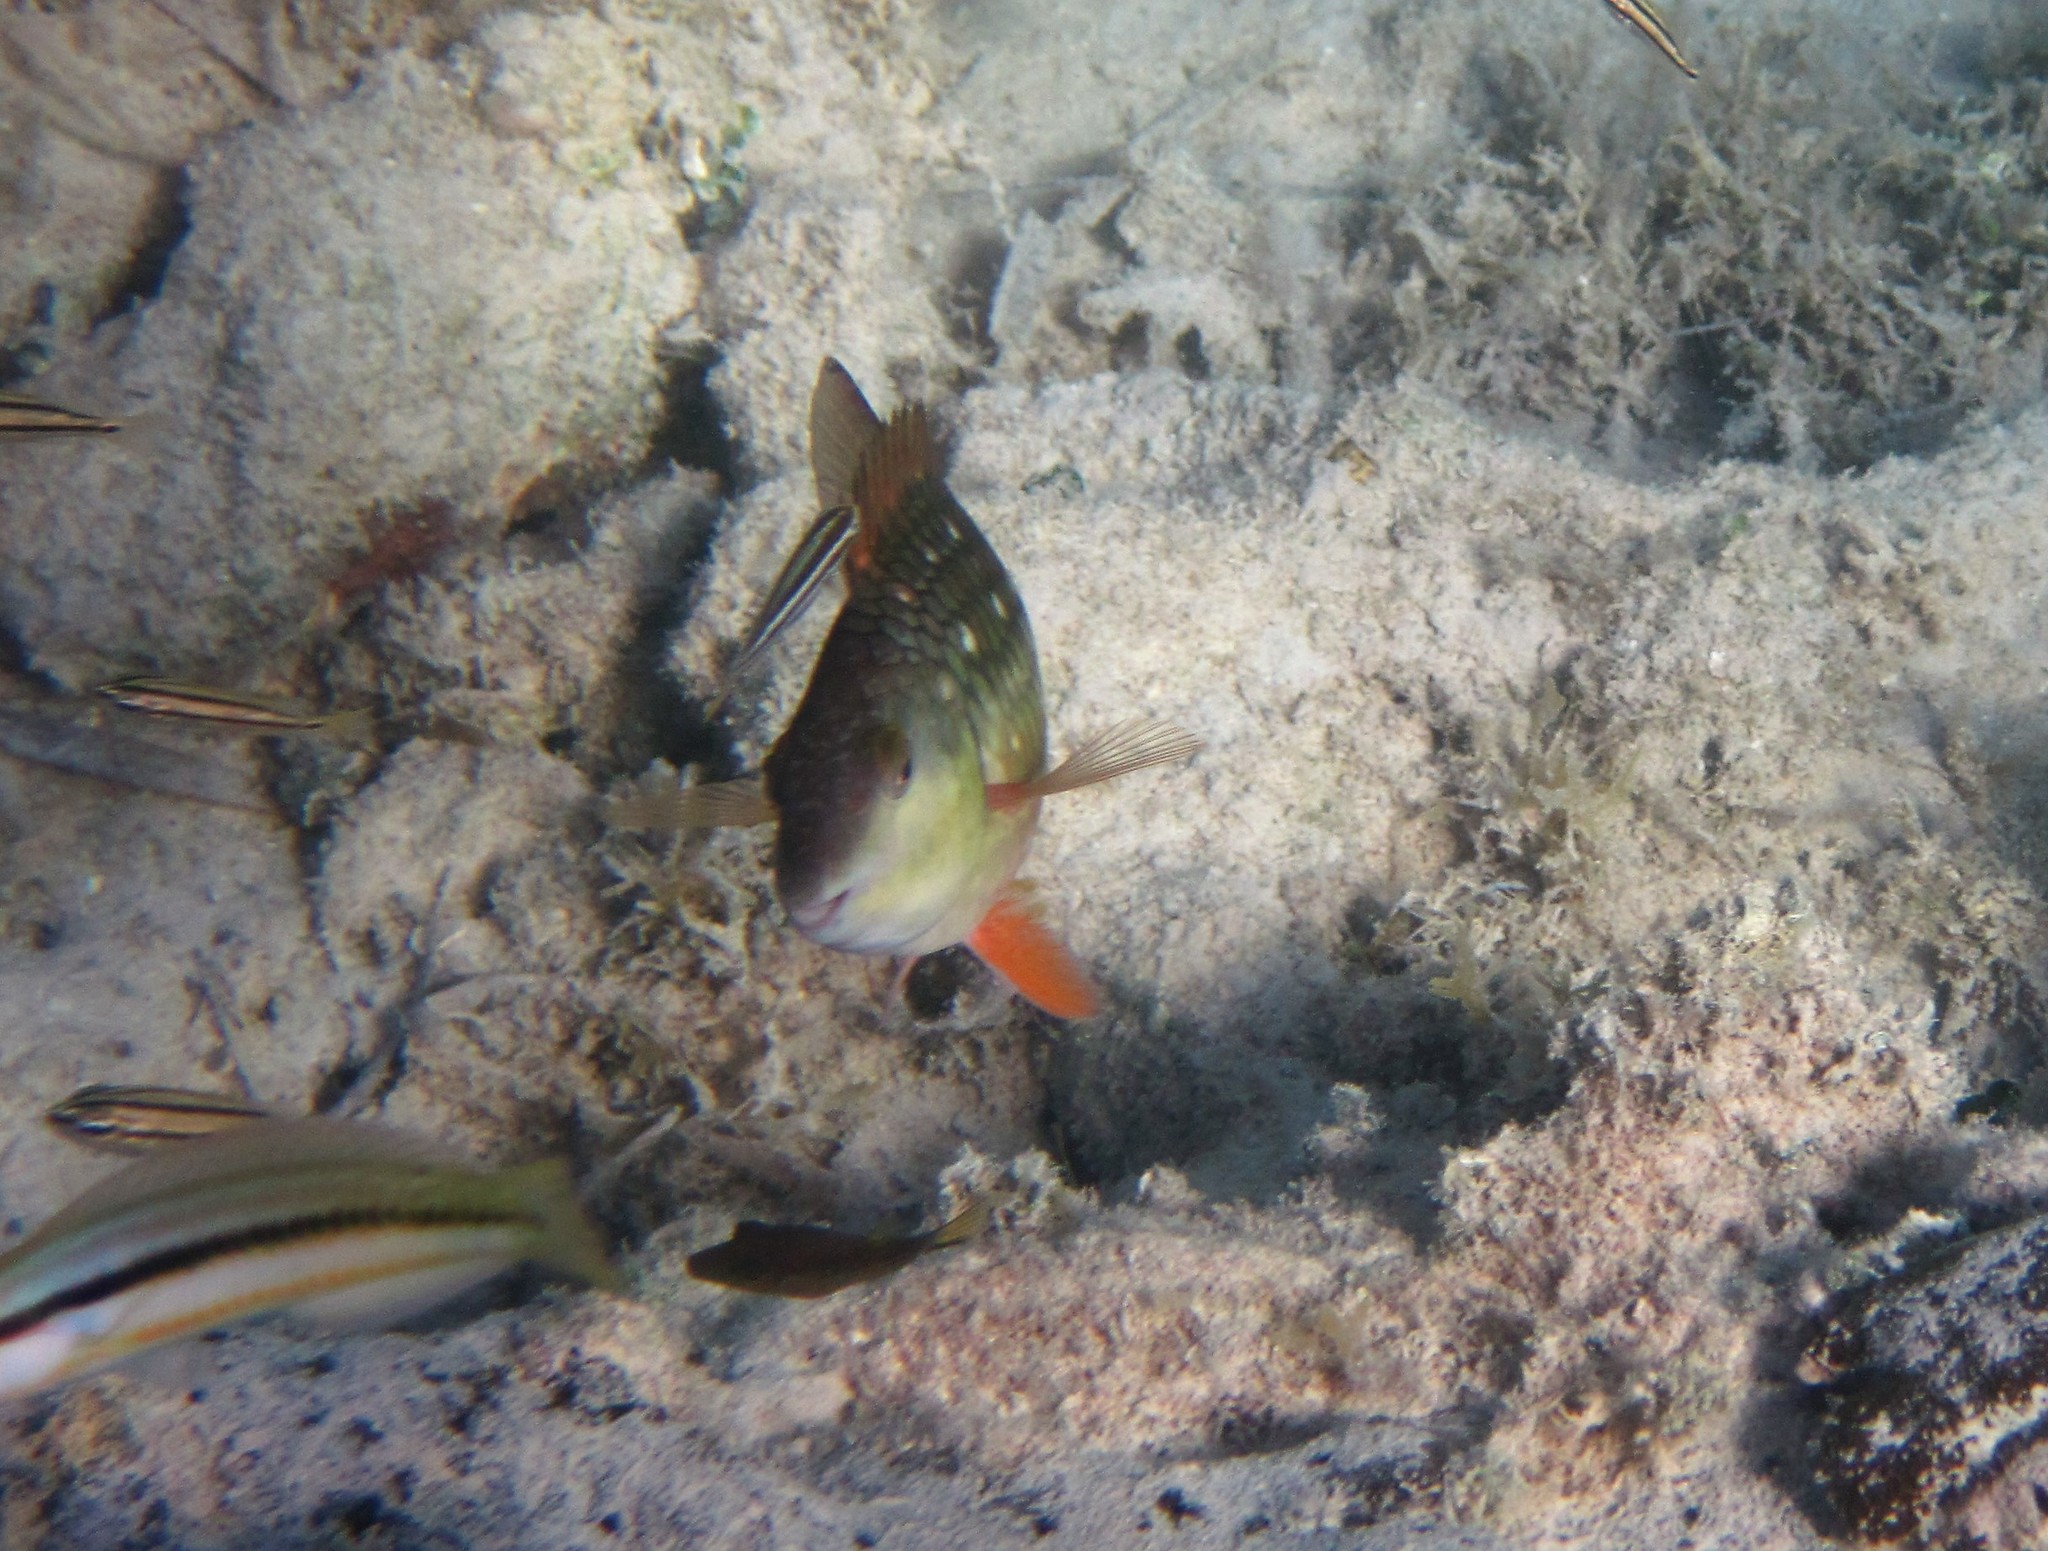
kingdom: Animalia
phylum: Chordata
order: Perciformes
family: Scaridae
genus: Sparisoma
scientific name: Sparisoma viride
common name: Stoplight parrotfish
